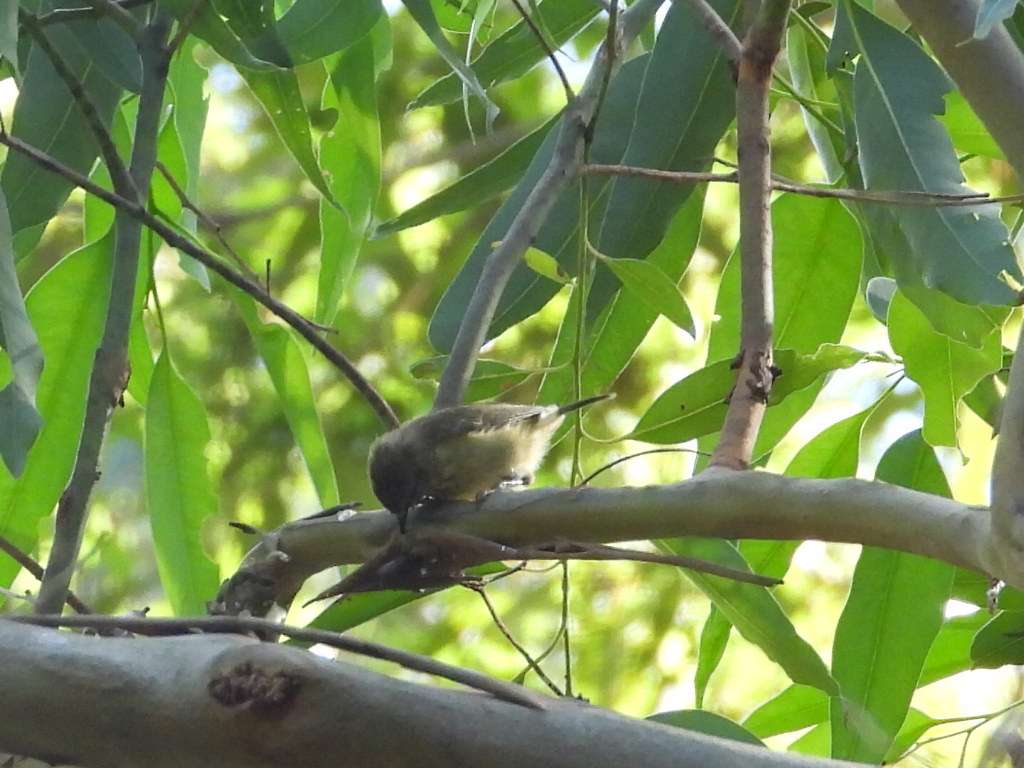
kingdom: Animalia
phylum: Chordata
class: Aves
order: Passeriformes
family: Acanthizidae
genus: Acanthiza
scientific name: Acanthiza reguloides
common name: Buff-rumped thornbill
